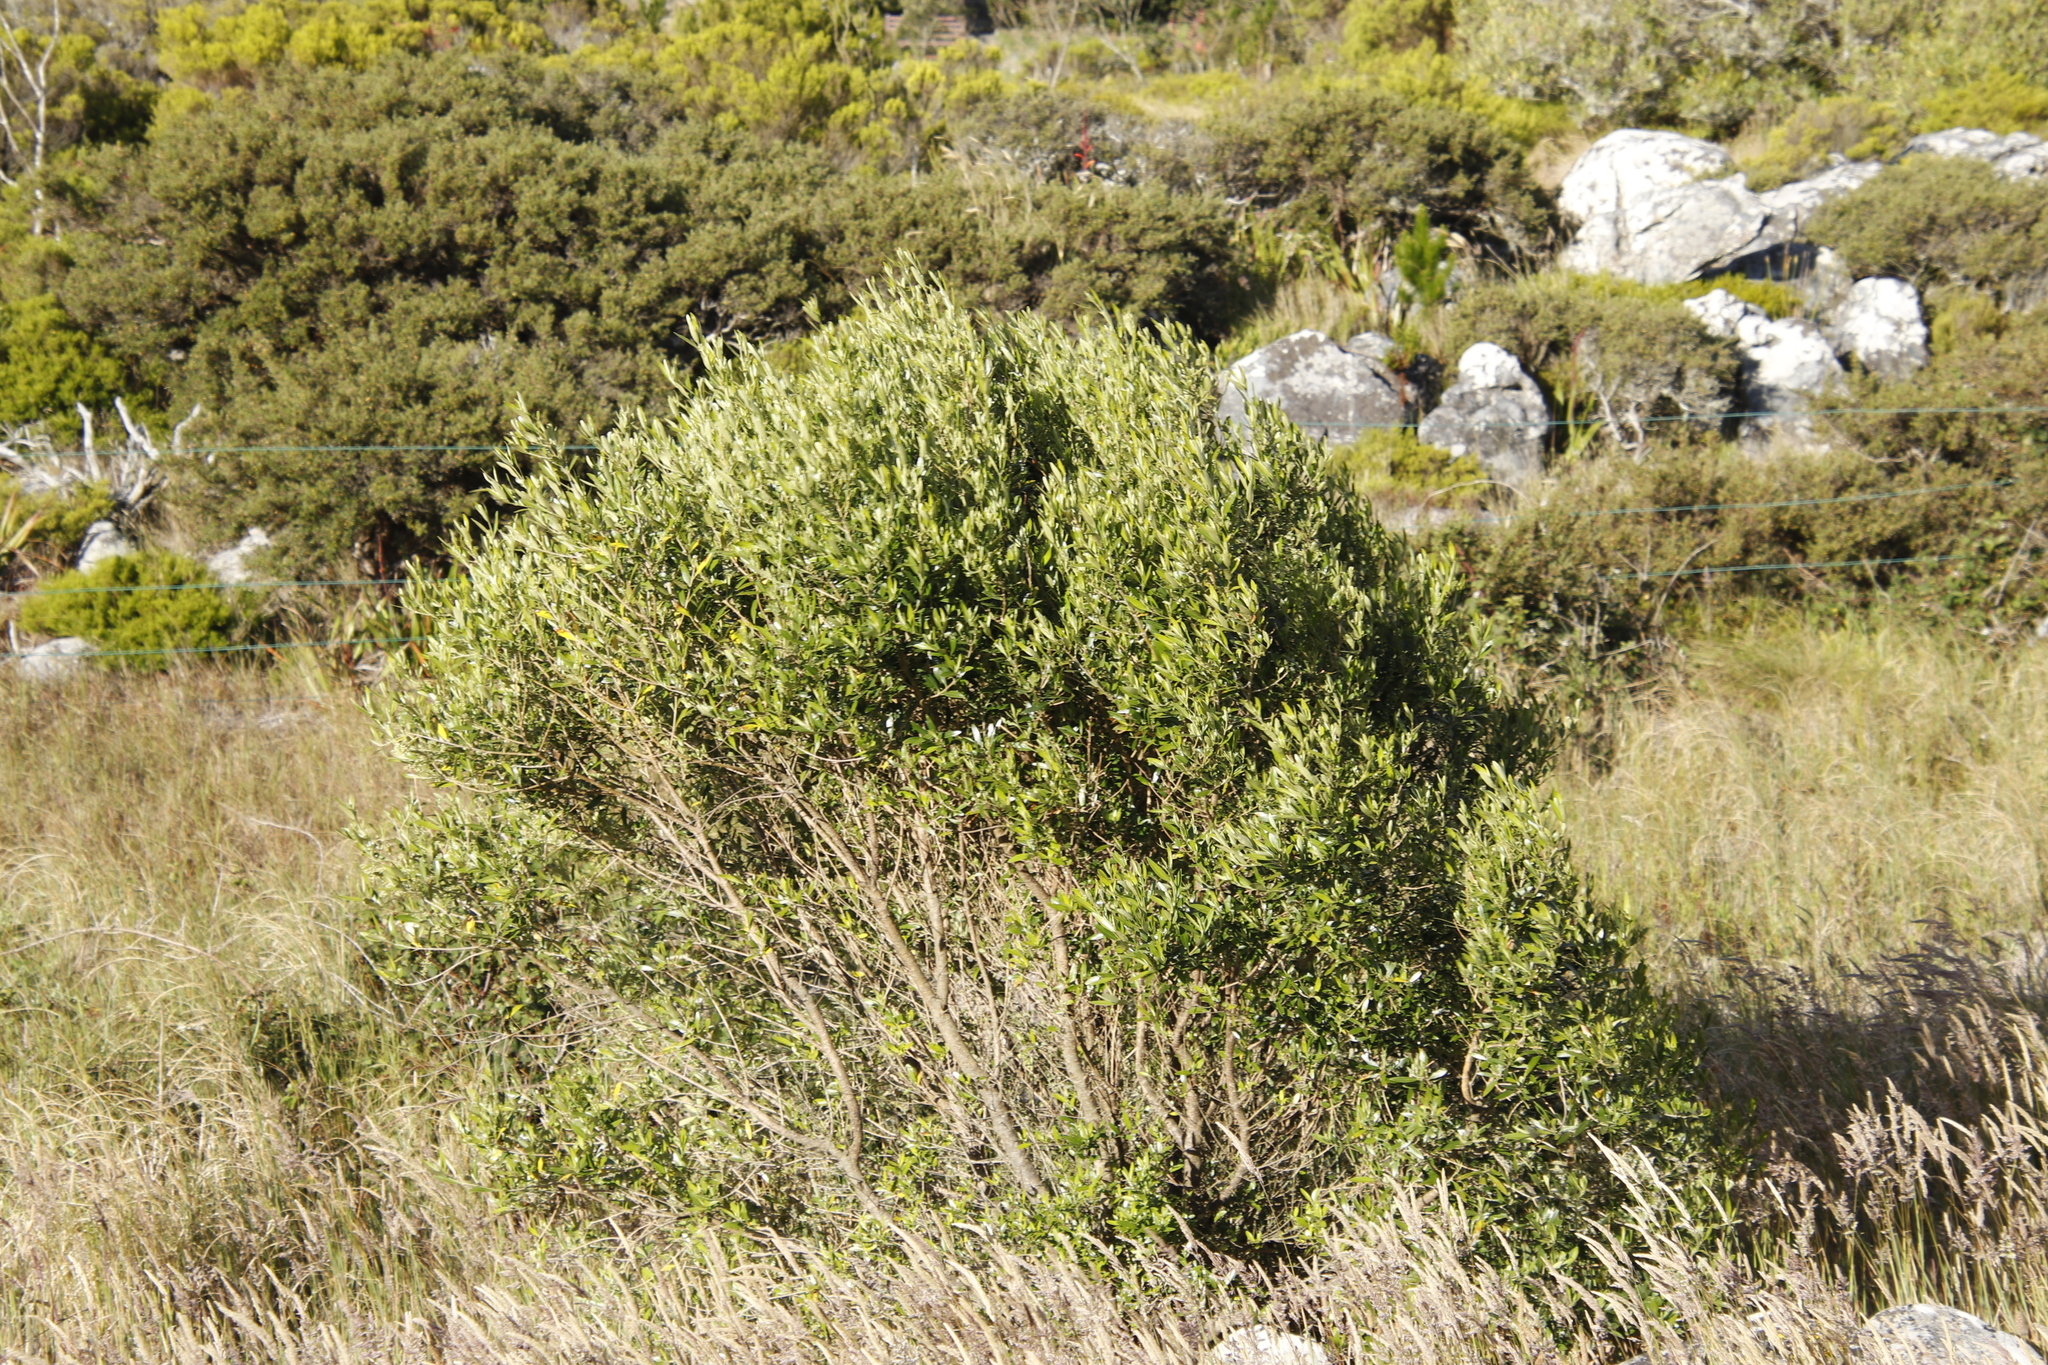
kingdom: Plantae
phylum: Tracheophyta
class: Magnoliopsida
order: Lamiales
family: Oleaceae
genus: Olea
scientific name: Olea europaea
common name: Olive
